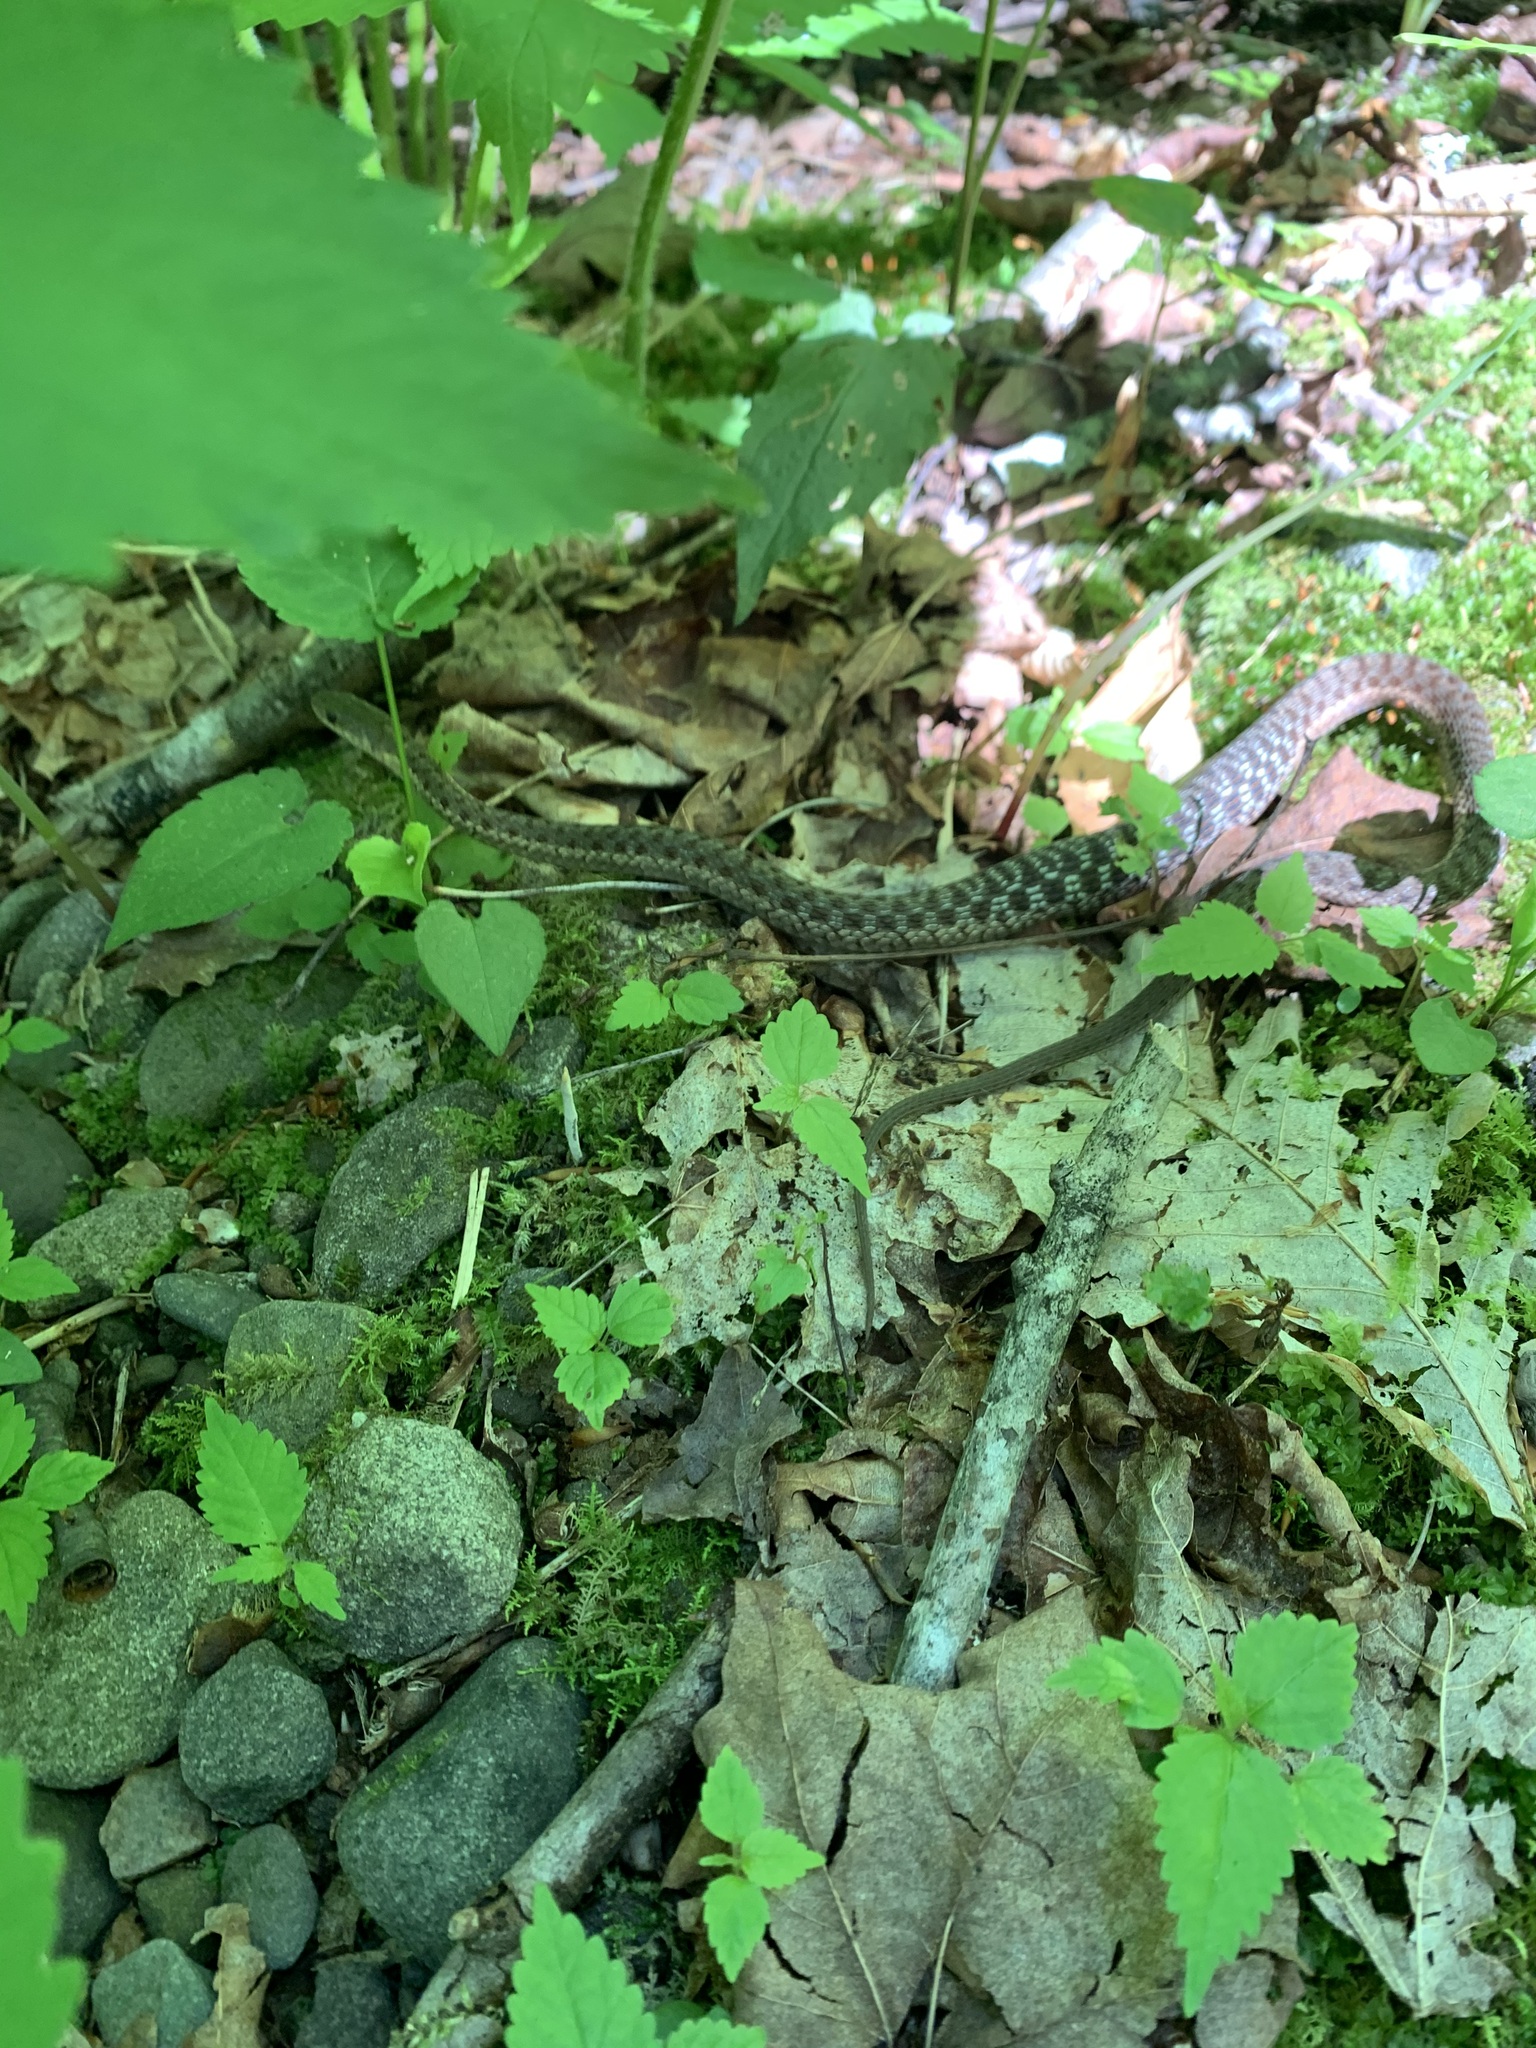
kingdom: Animalia
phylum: Chordata
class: Squamata
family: Colubridae
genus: Thamnophis
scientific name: Thamnophis sirtalis
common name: Common garter snake
